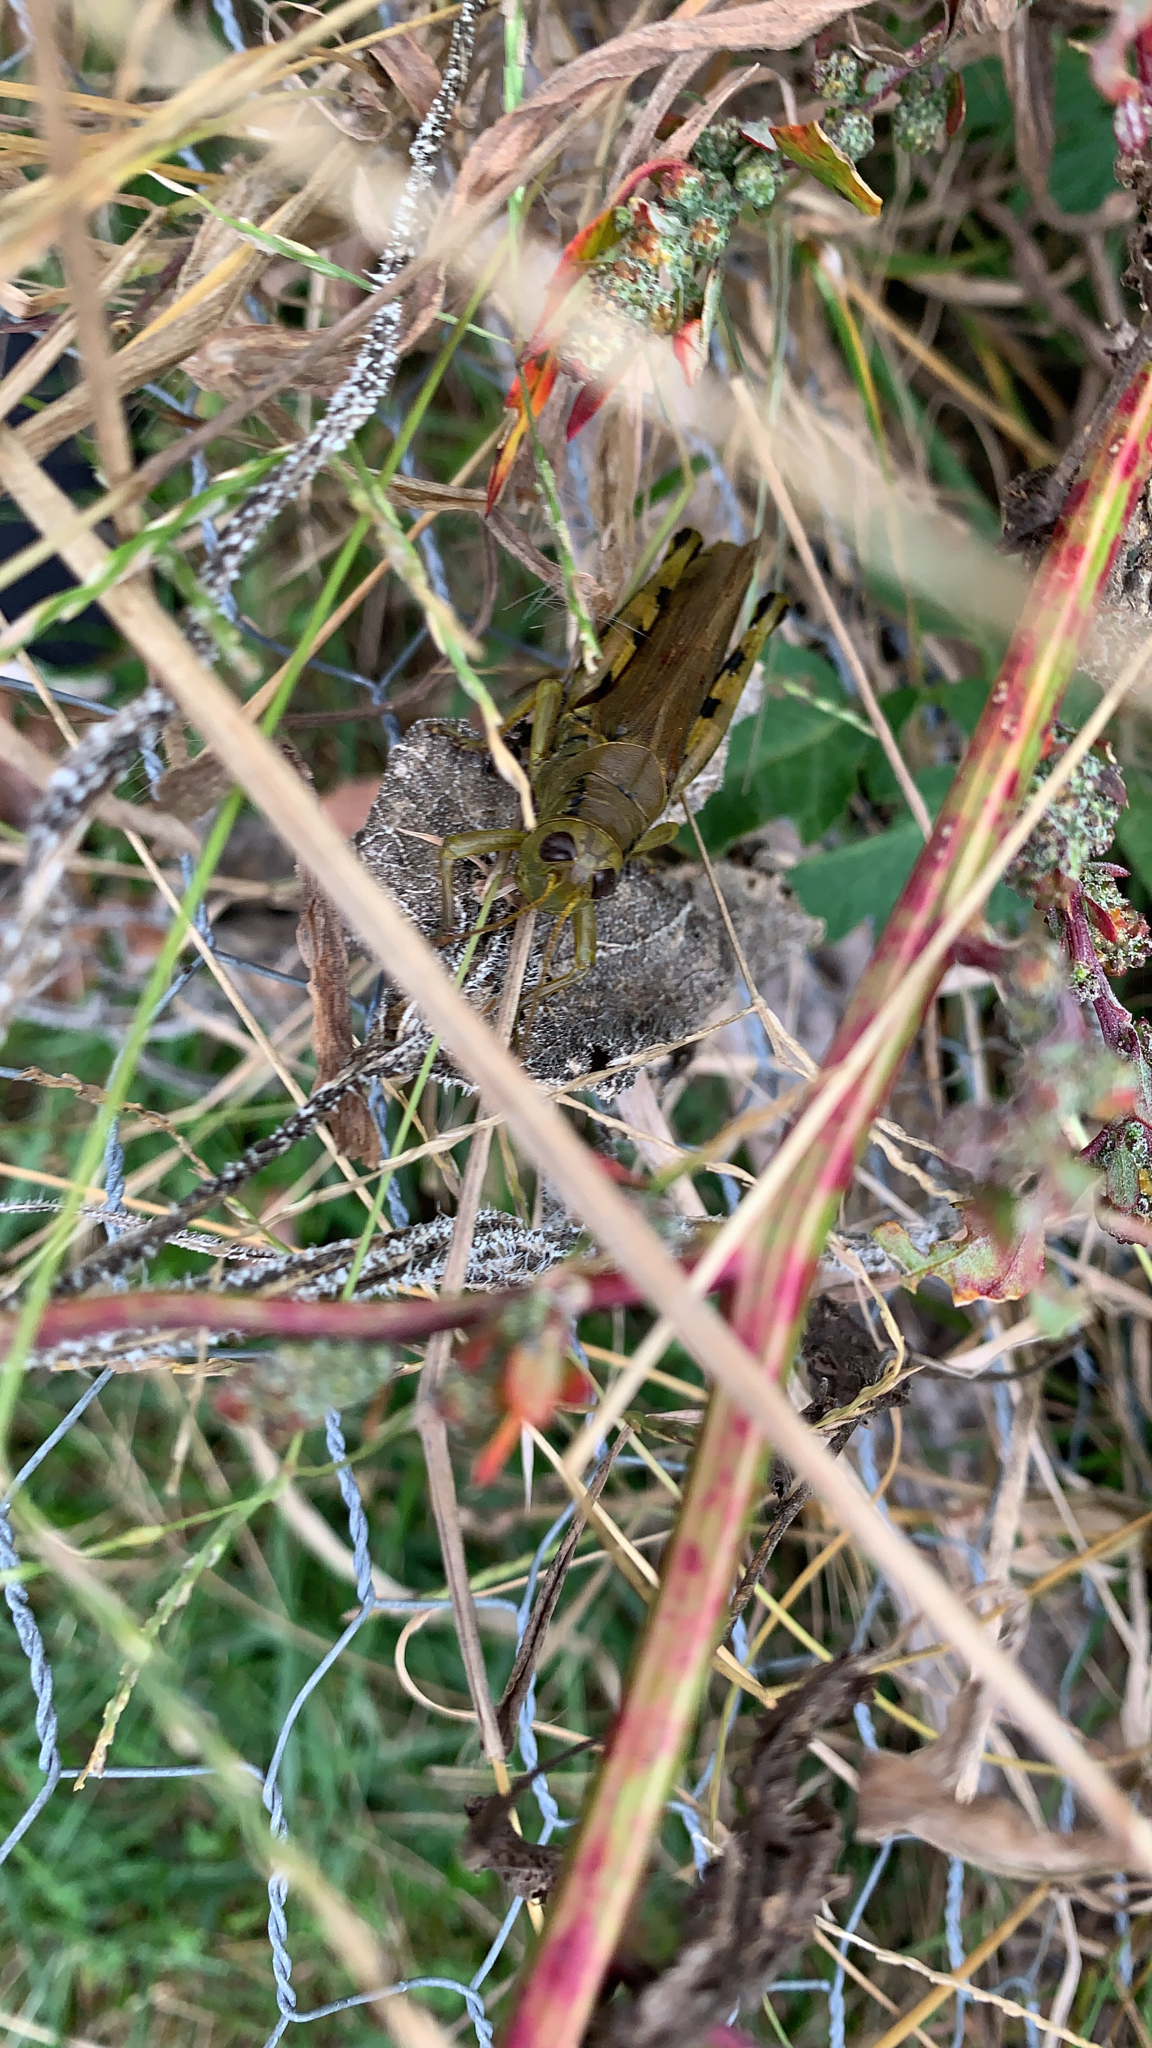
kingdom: Animalia
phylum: Arthropoda
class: Insecta
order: Orthoptera
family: Acrididae
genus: Melanoplus
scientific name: Melanoplus differentialis
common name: Differential grasshopper
